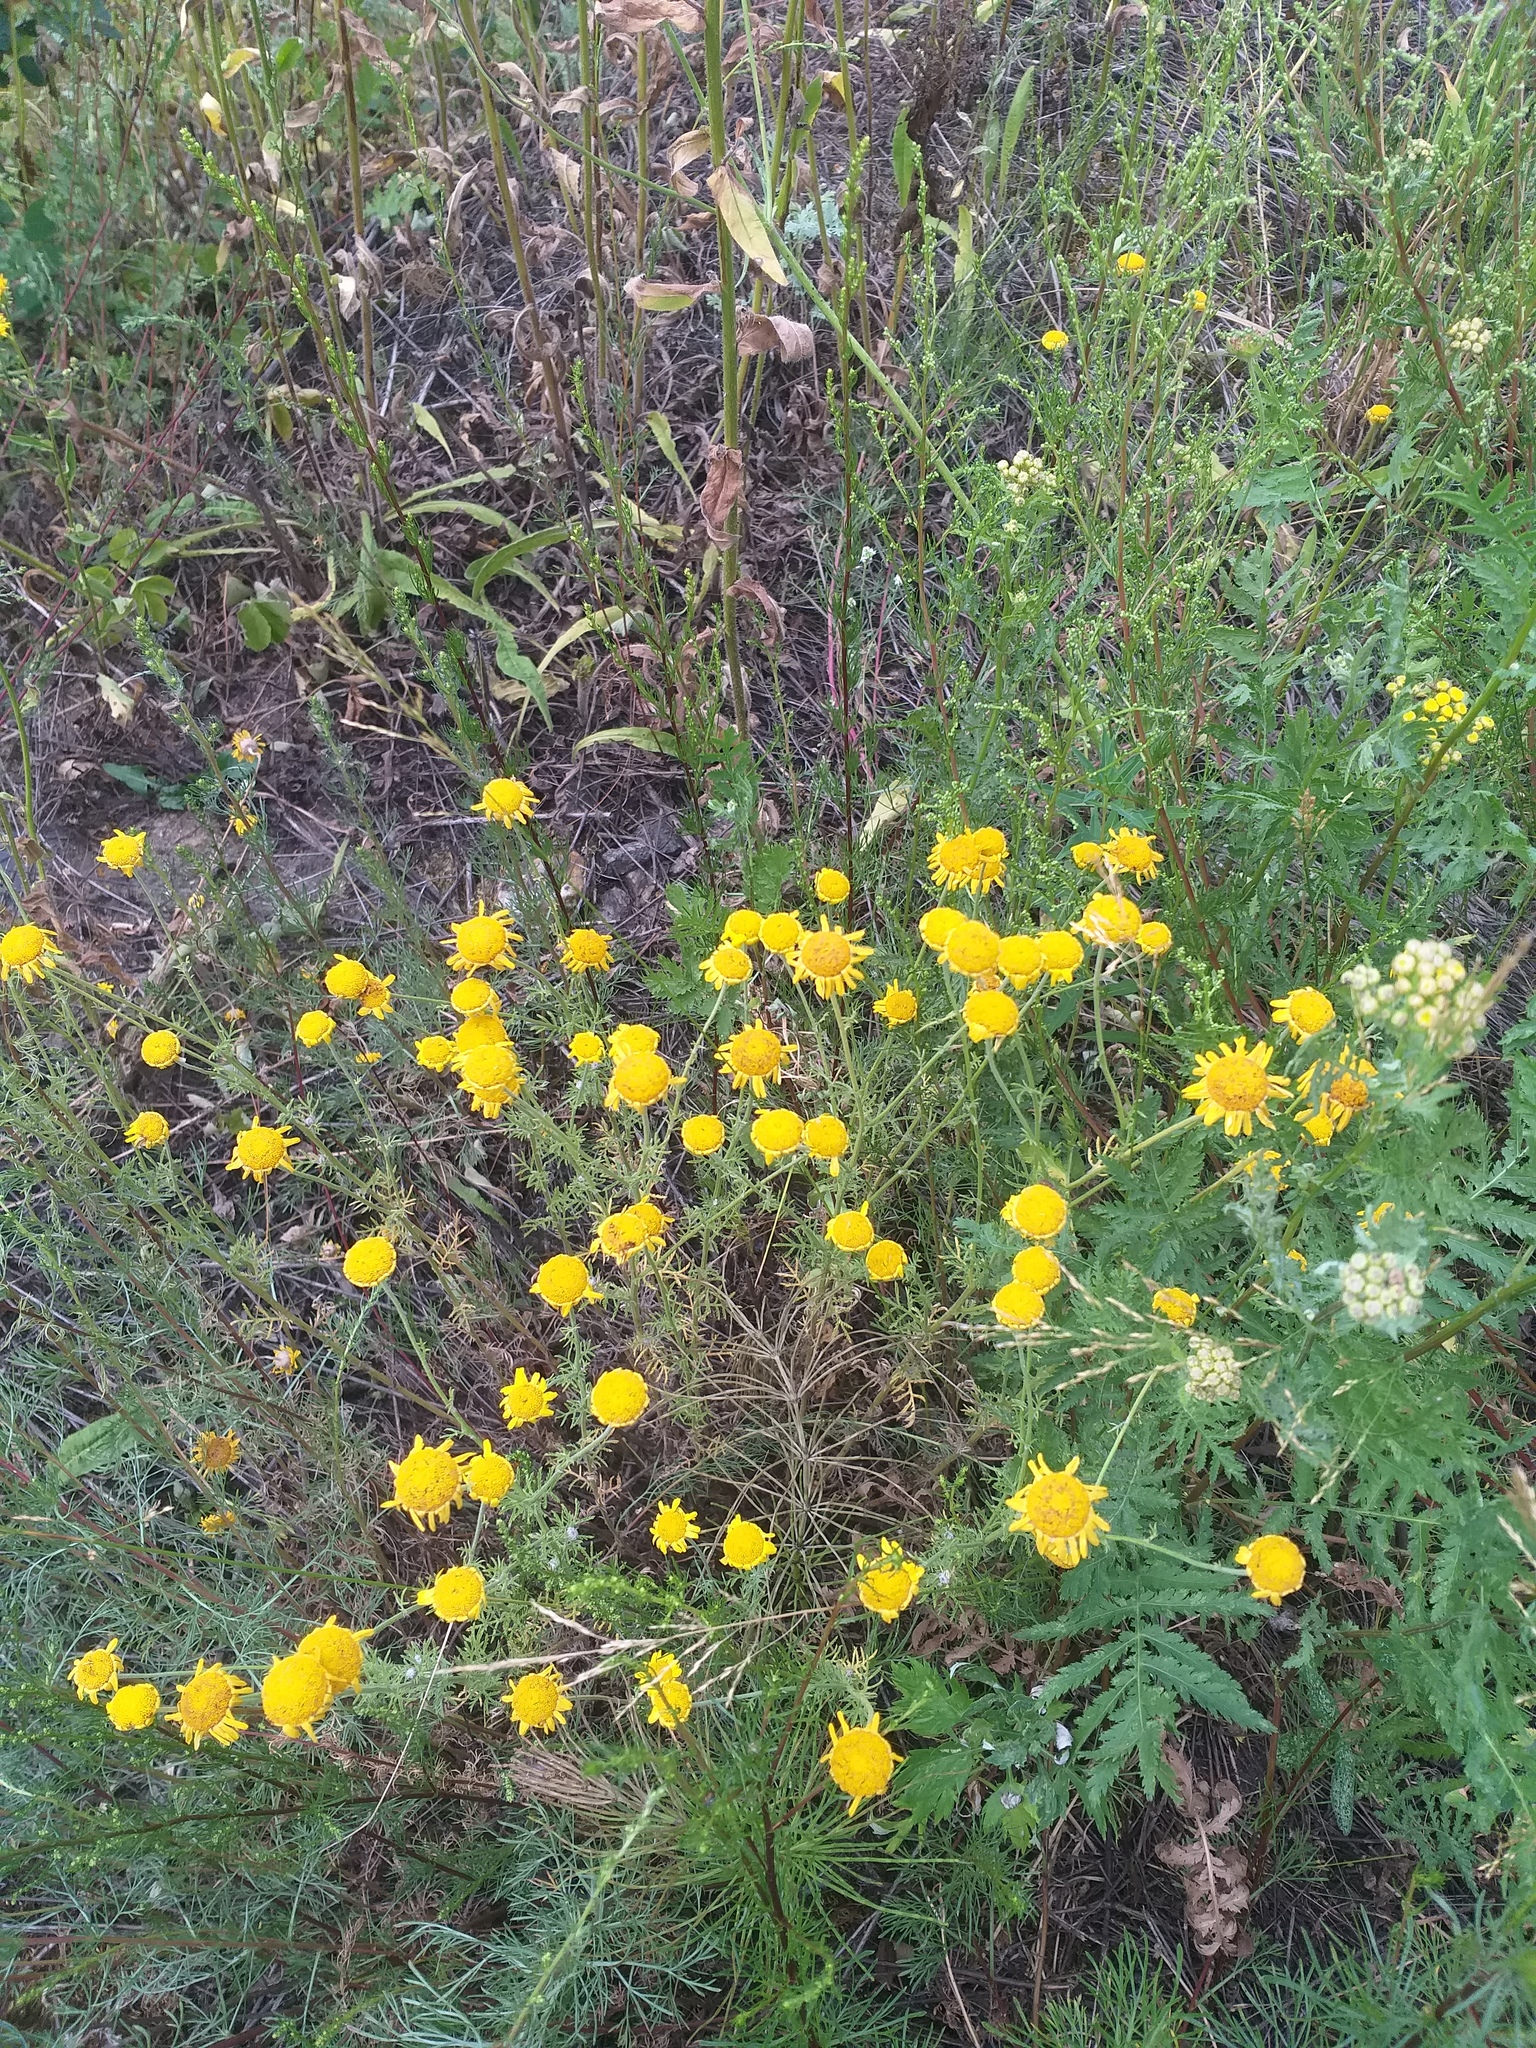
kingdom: Plantae
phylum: Tracheophyta
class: Magnoliopsida
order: Asterales
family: Asteraceae
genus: Cota
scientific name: Cota tinctoria
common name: Golden chamomile
